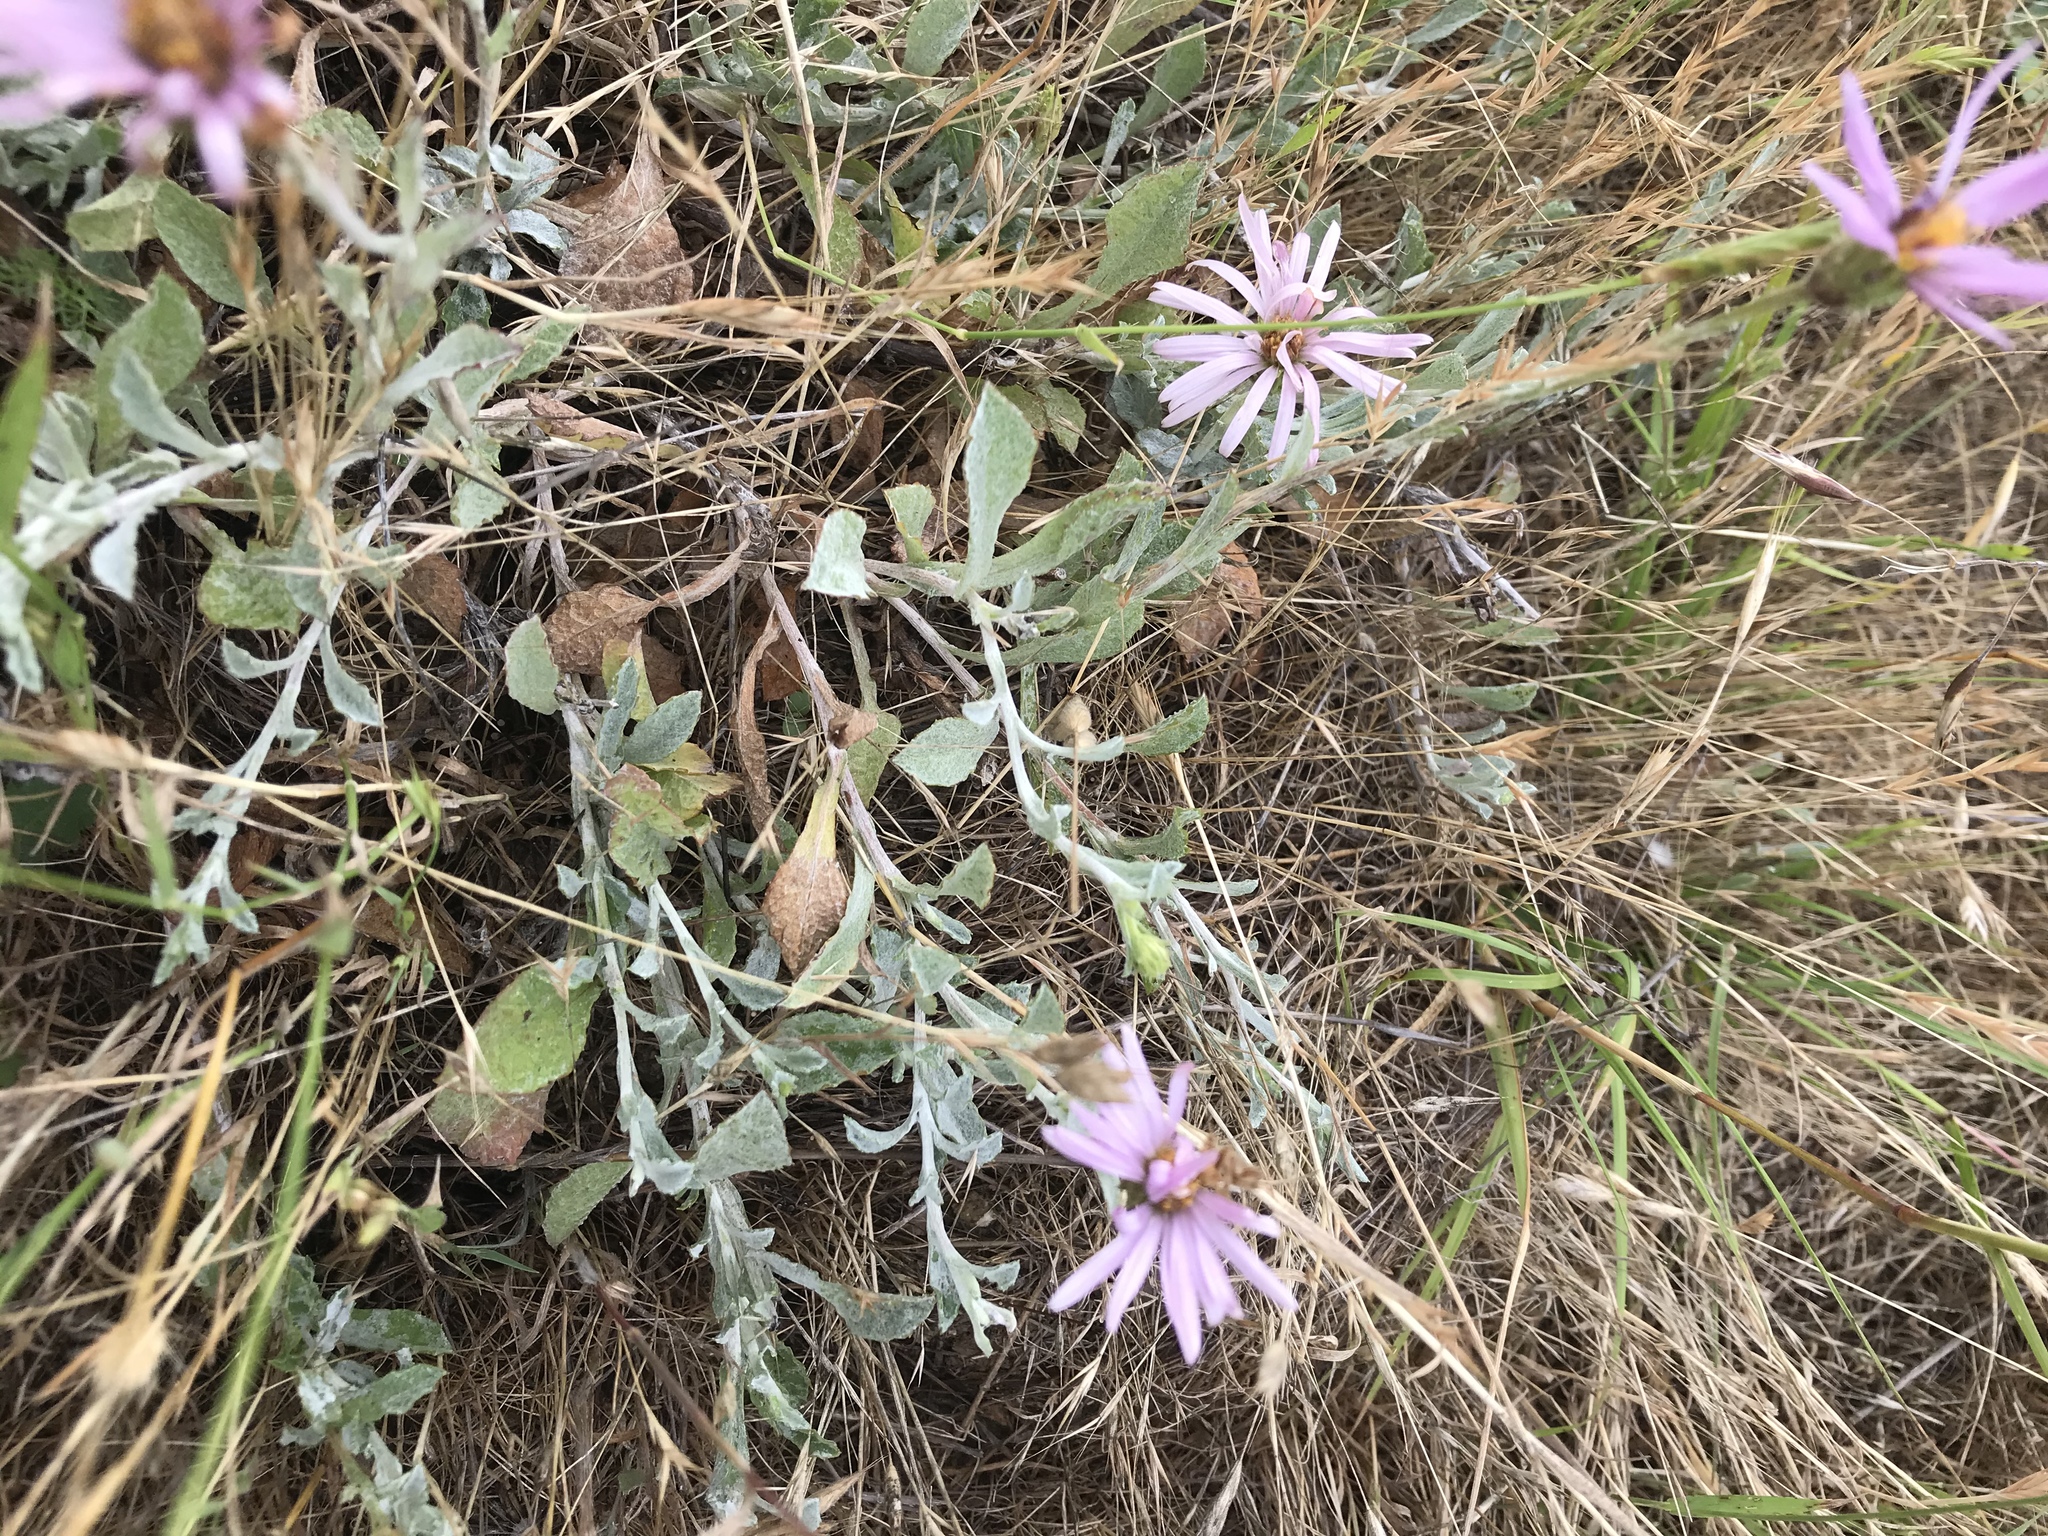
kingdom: Plantae
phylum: Tracheophyta
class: Magnoliopsida
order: Asterales
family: Asteraceae
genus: Corethrogyne
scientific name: Corethrogyne filaginifolia
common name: Sand-aster
